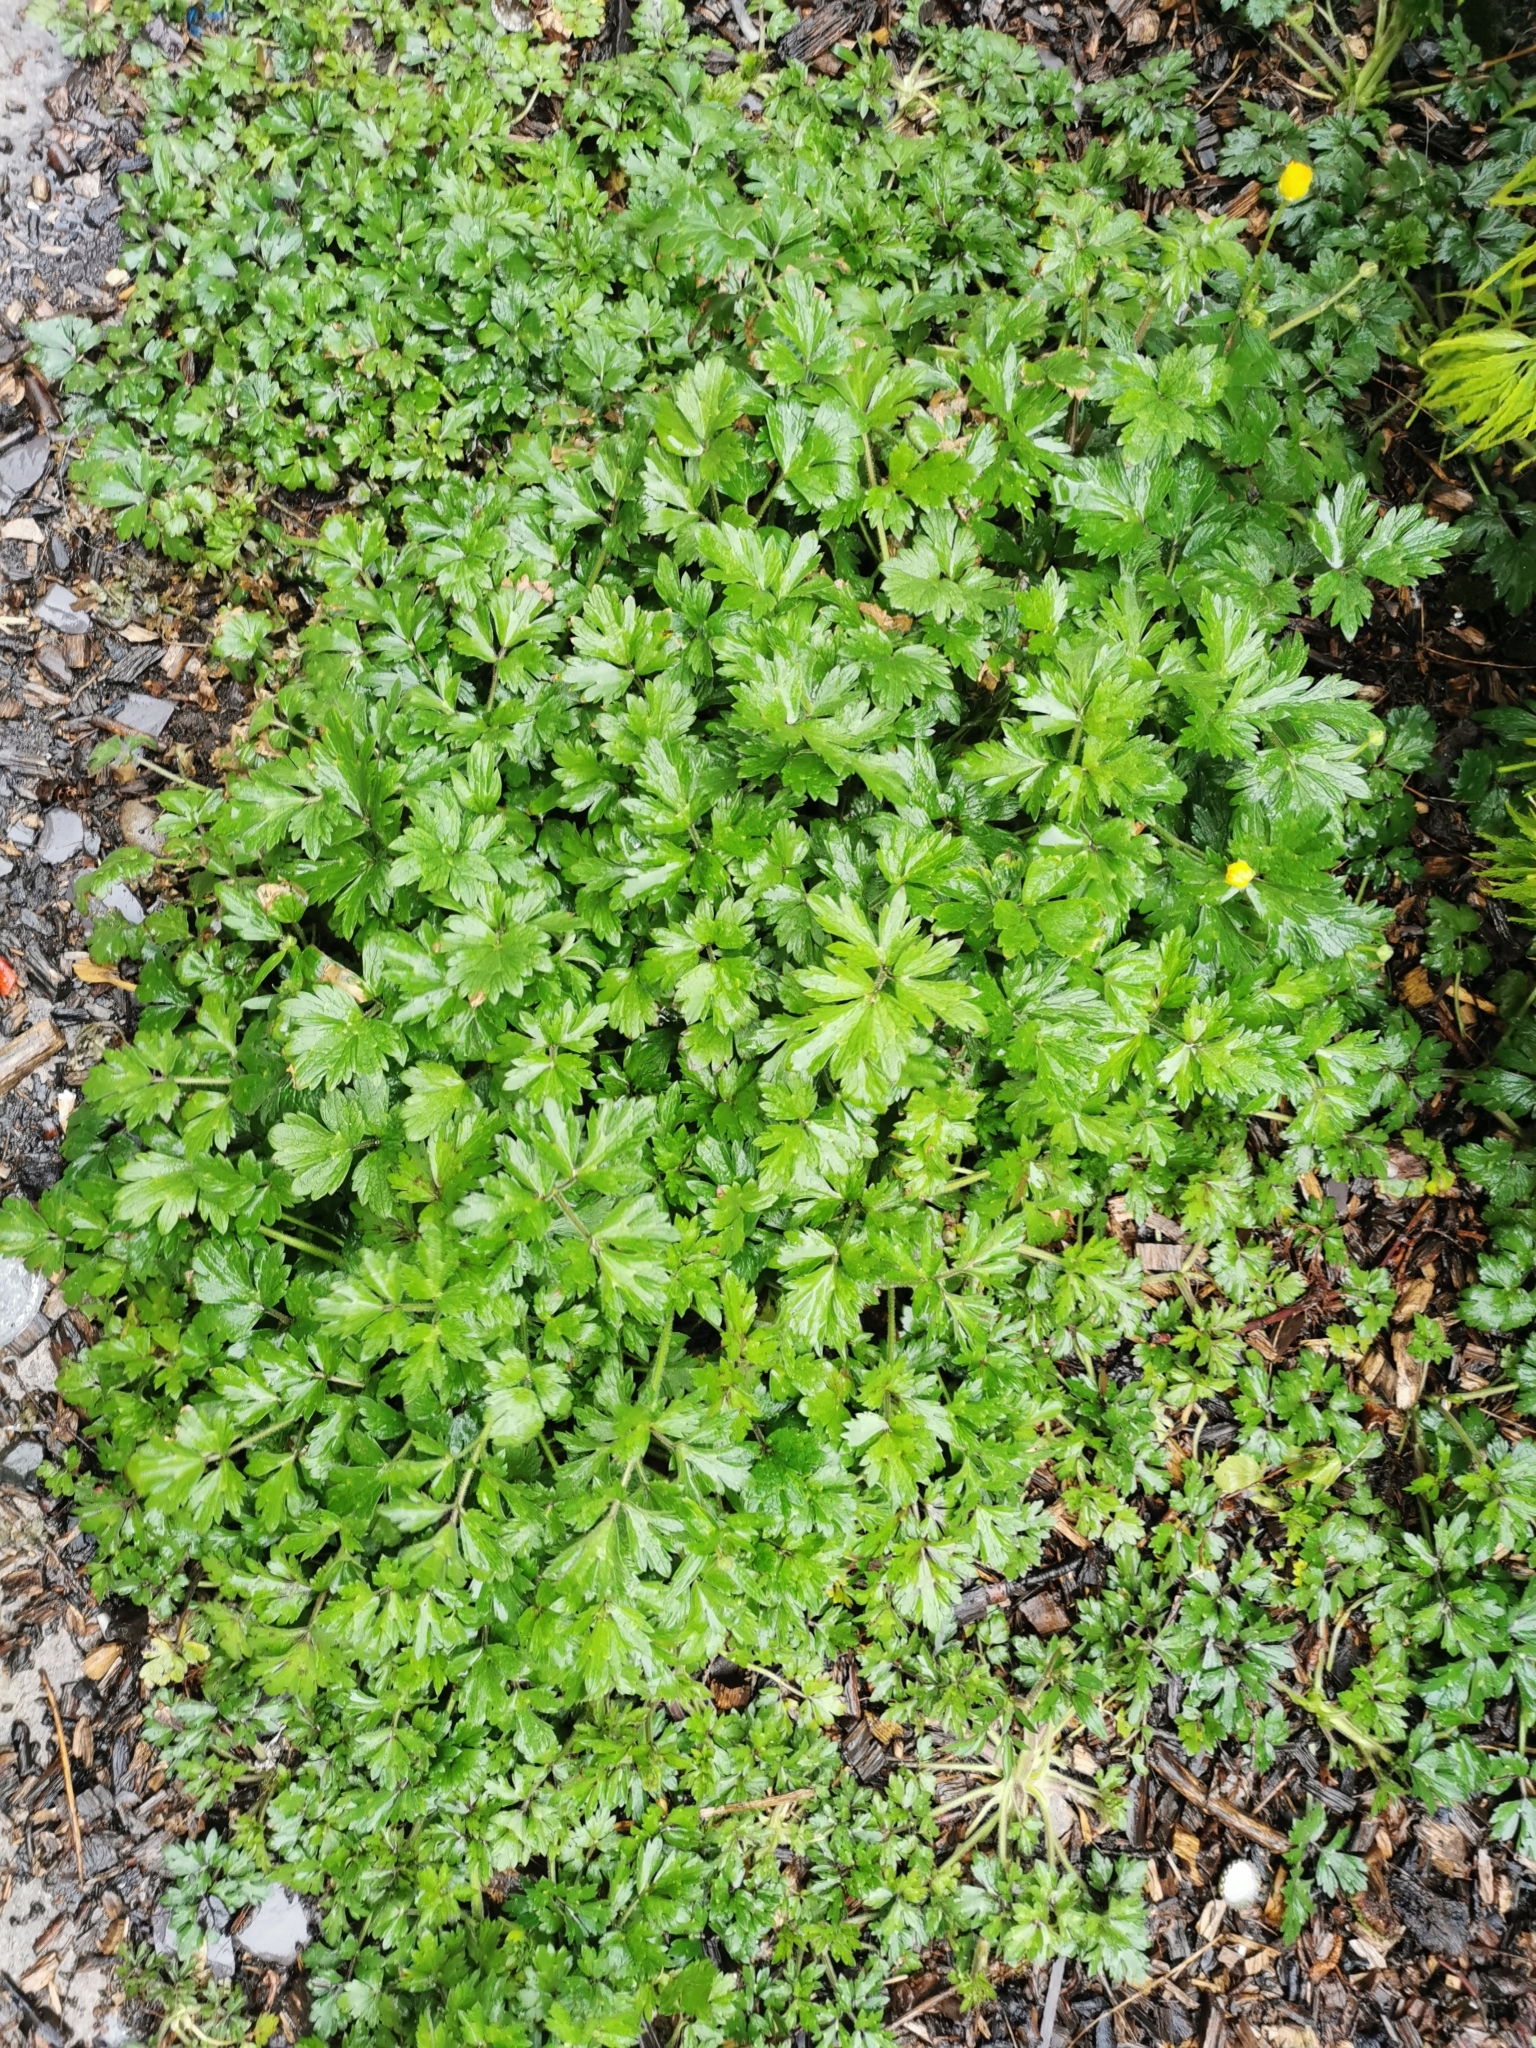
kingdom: Plantae
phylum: Tracheophyta
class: Magnoliopsida
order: Ranunculales
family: Ranunculaceae
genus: Ranunculus
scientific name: Ranunculus repens
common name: Creeping buttercup
